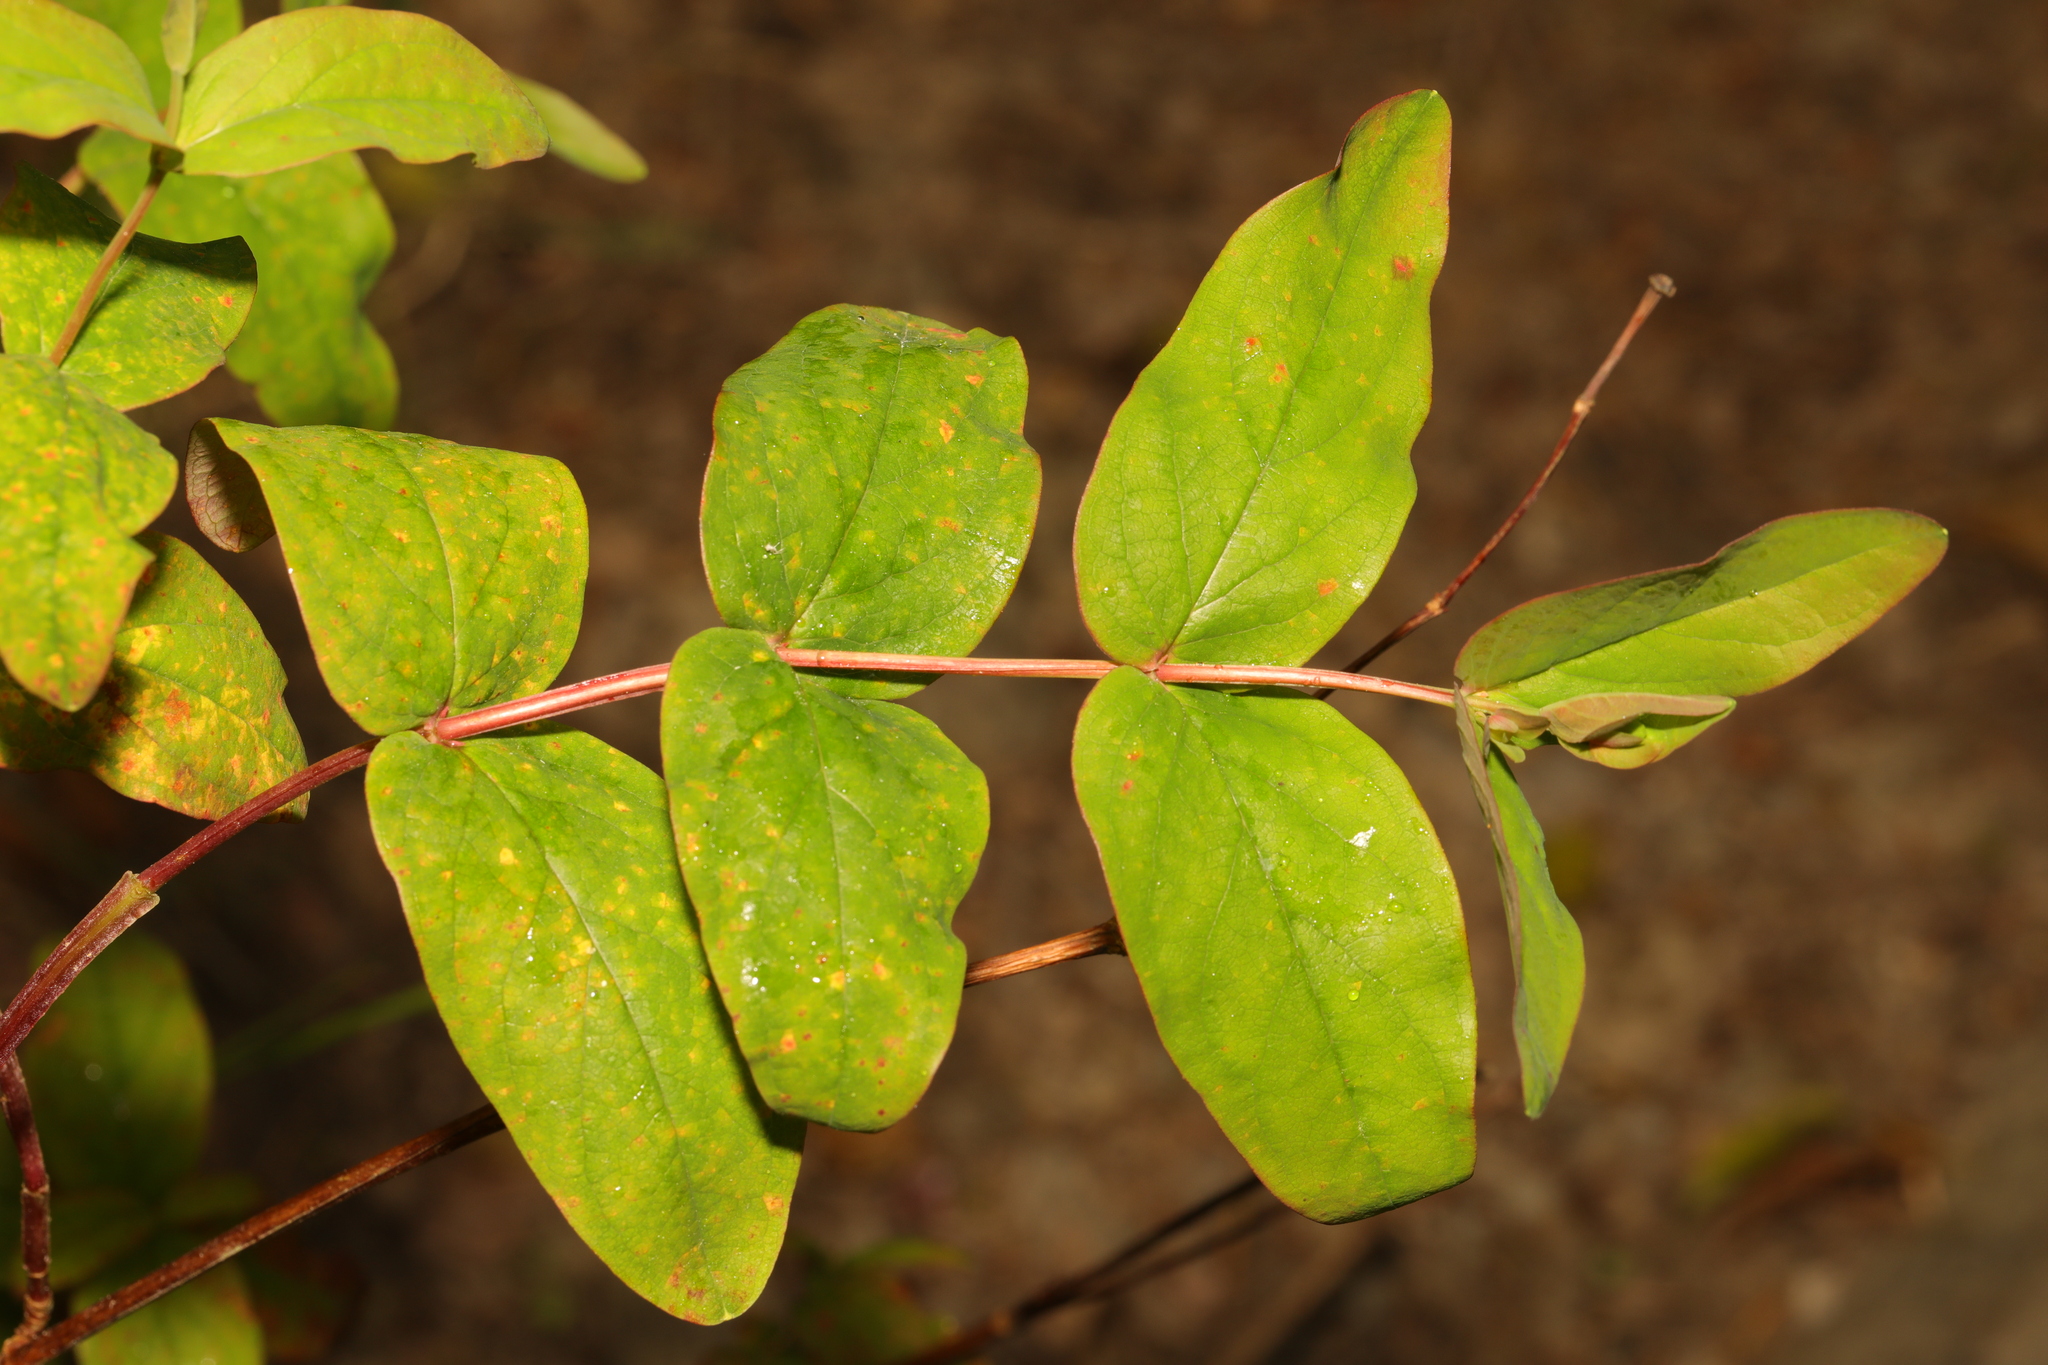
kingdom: Plantae
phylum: Tracheophyta
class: Magnoliopsida
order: Malpighiales
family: Hypericaceae
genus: Hypericum
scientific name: Hypericum androsaemum
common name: Sweet-amber
